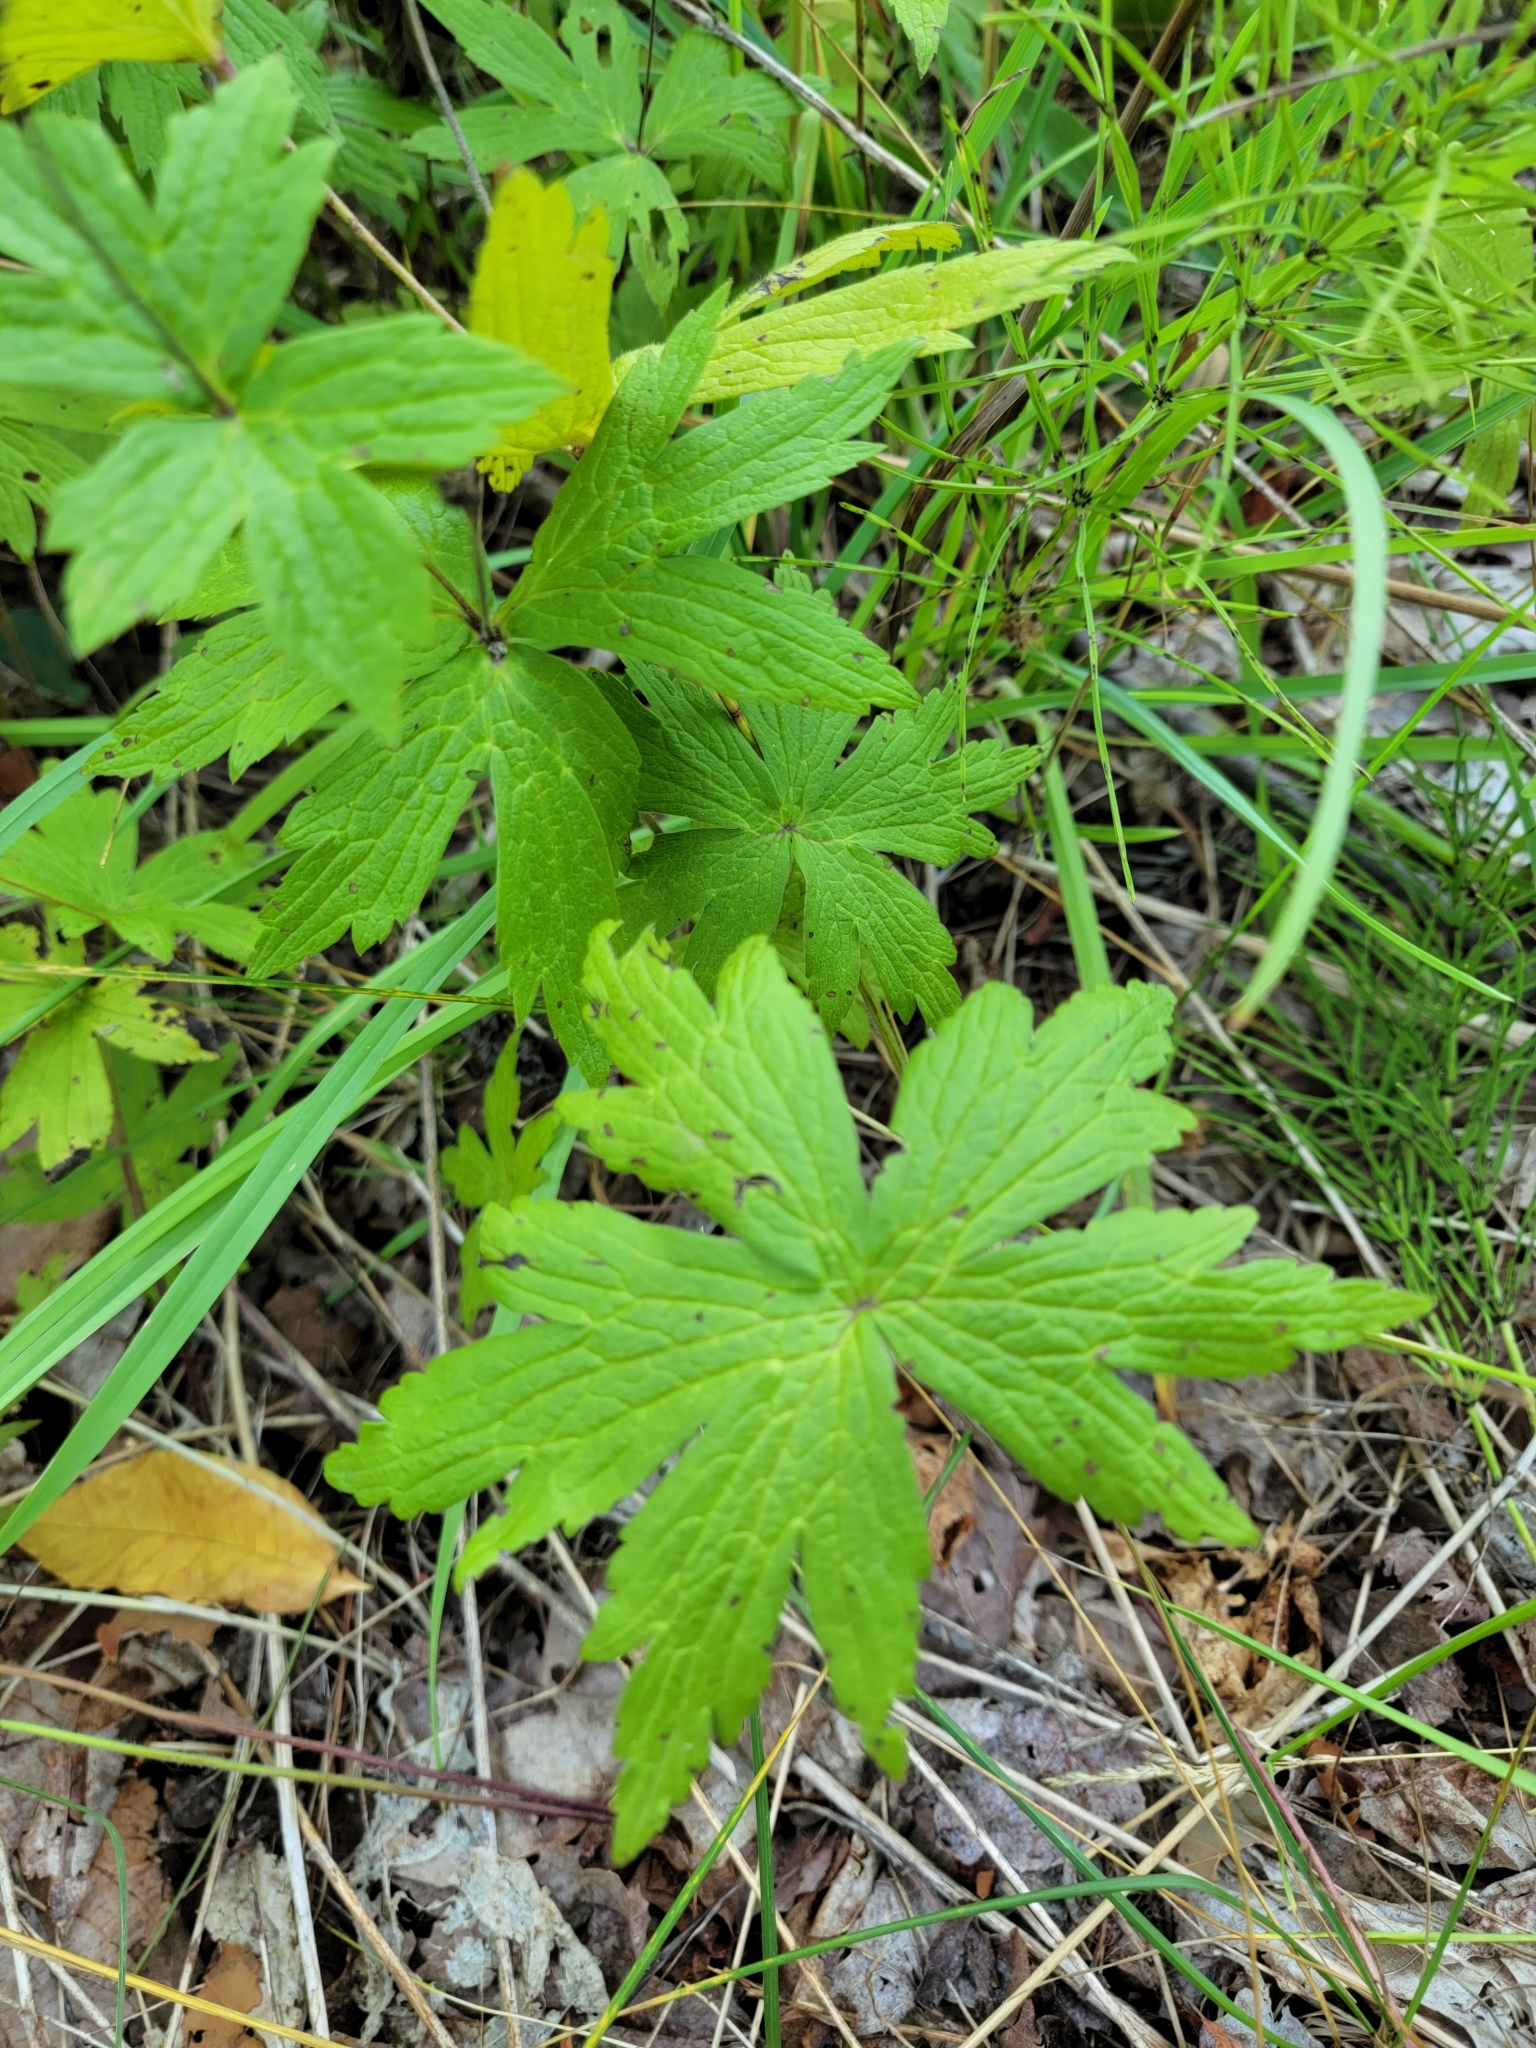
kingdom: Plantae
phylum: Tracheophyta
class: Magnoliopsida
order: Ranunculales
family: Ranunculaceae
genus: Anemonastrum
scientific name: Anemonastrum canadense
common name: Canada anemone
